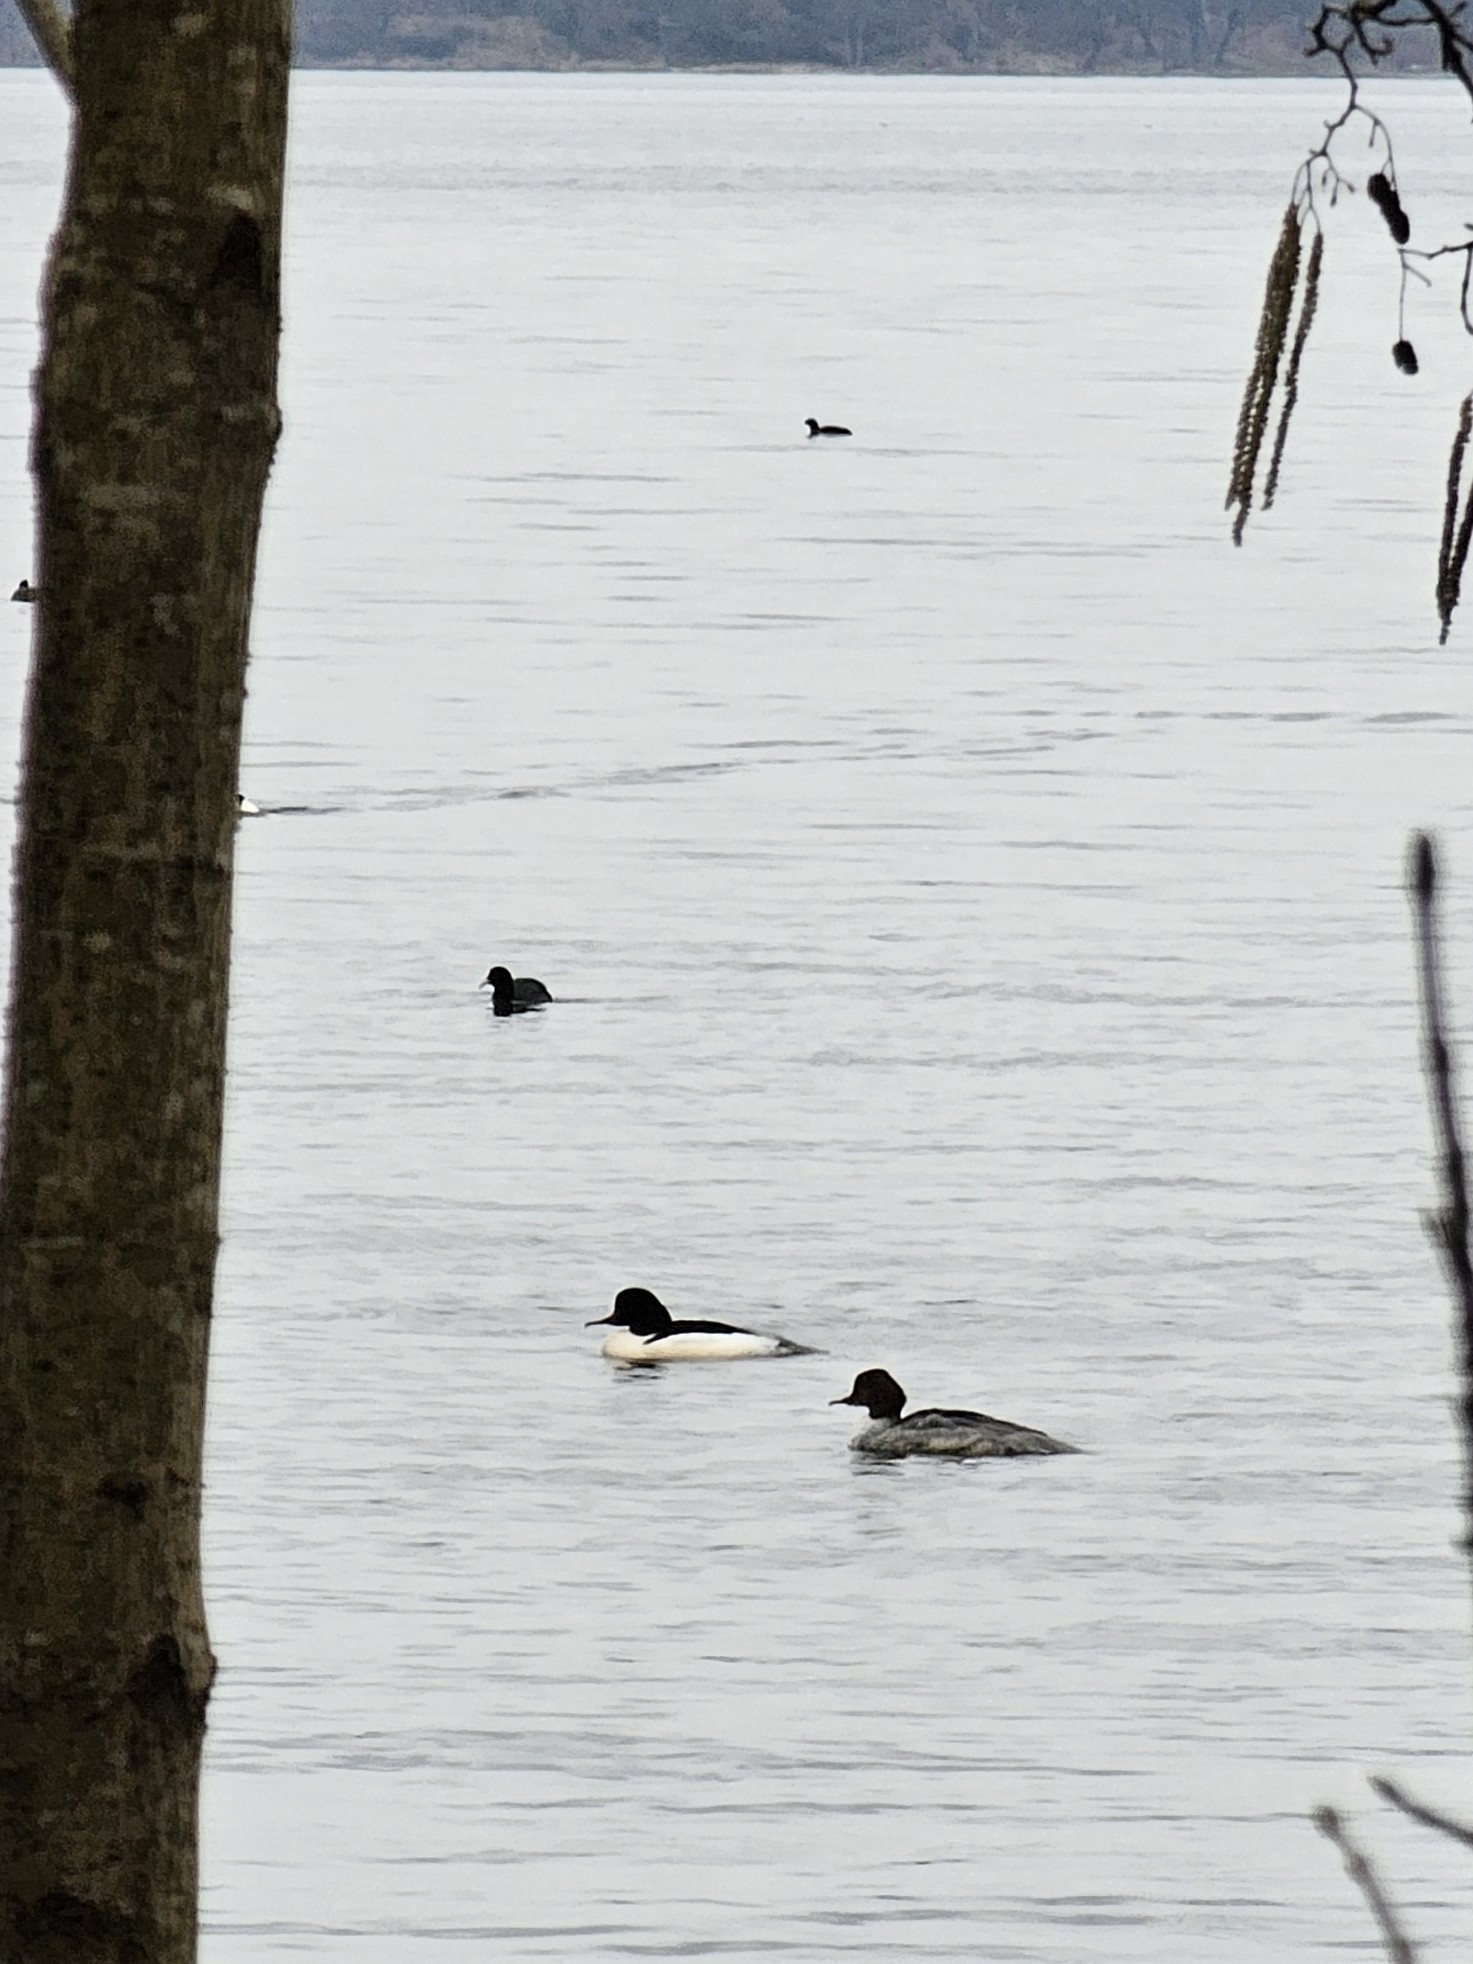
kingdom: Animalia
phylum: Chordata
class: Aves
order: Gruiformes
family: Rallidae
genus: Fulica
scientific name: Fulica atra
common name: Eurasian coot
